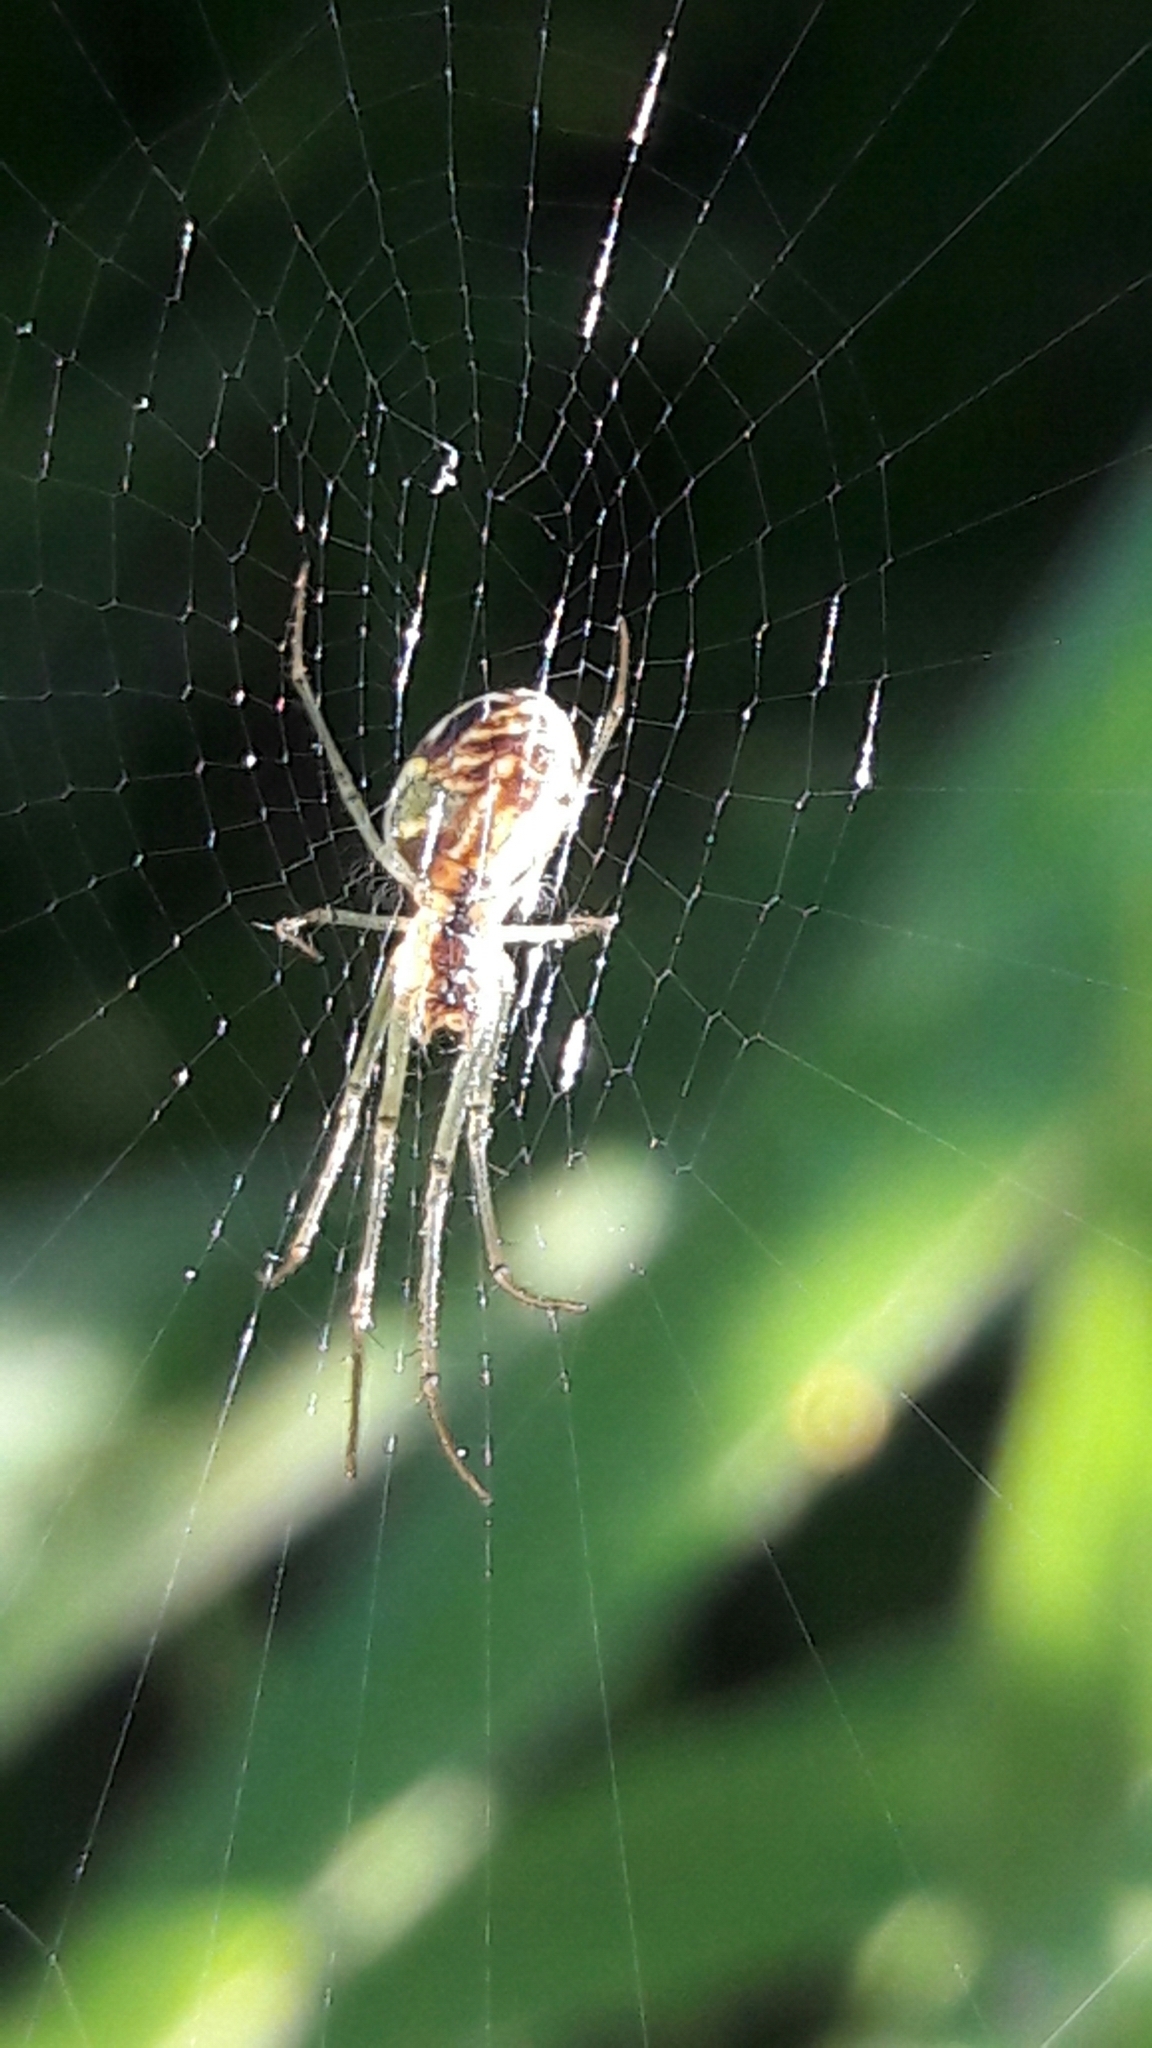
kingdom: Animalia
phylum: Arthropoda
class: Arachnida
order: Araneae
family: Tetragnathidae
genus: Leucauge
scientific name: Leucauge volupis
